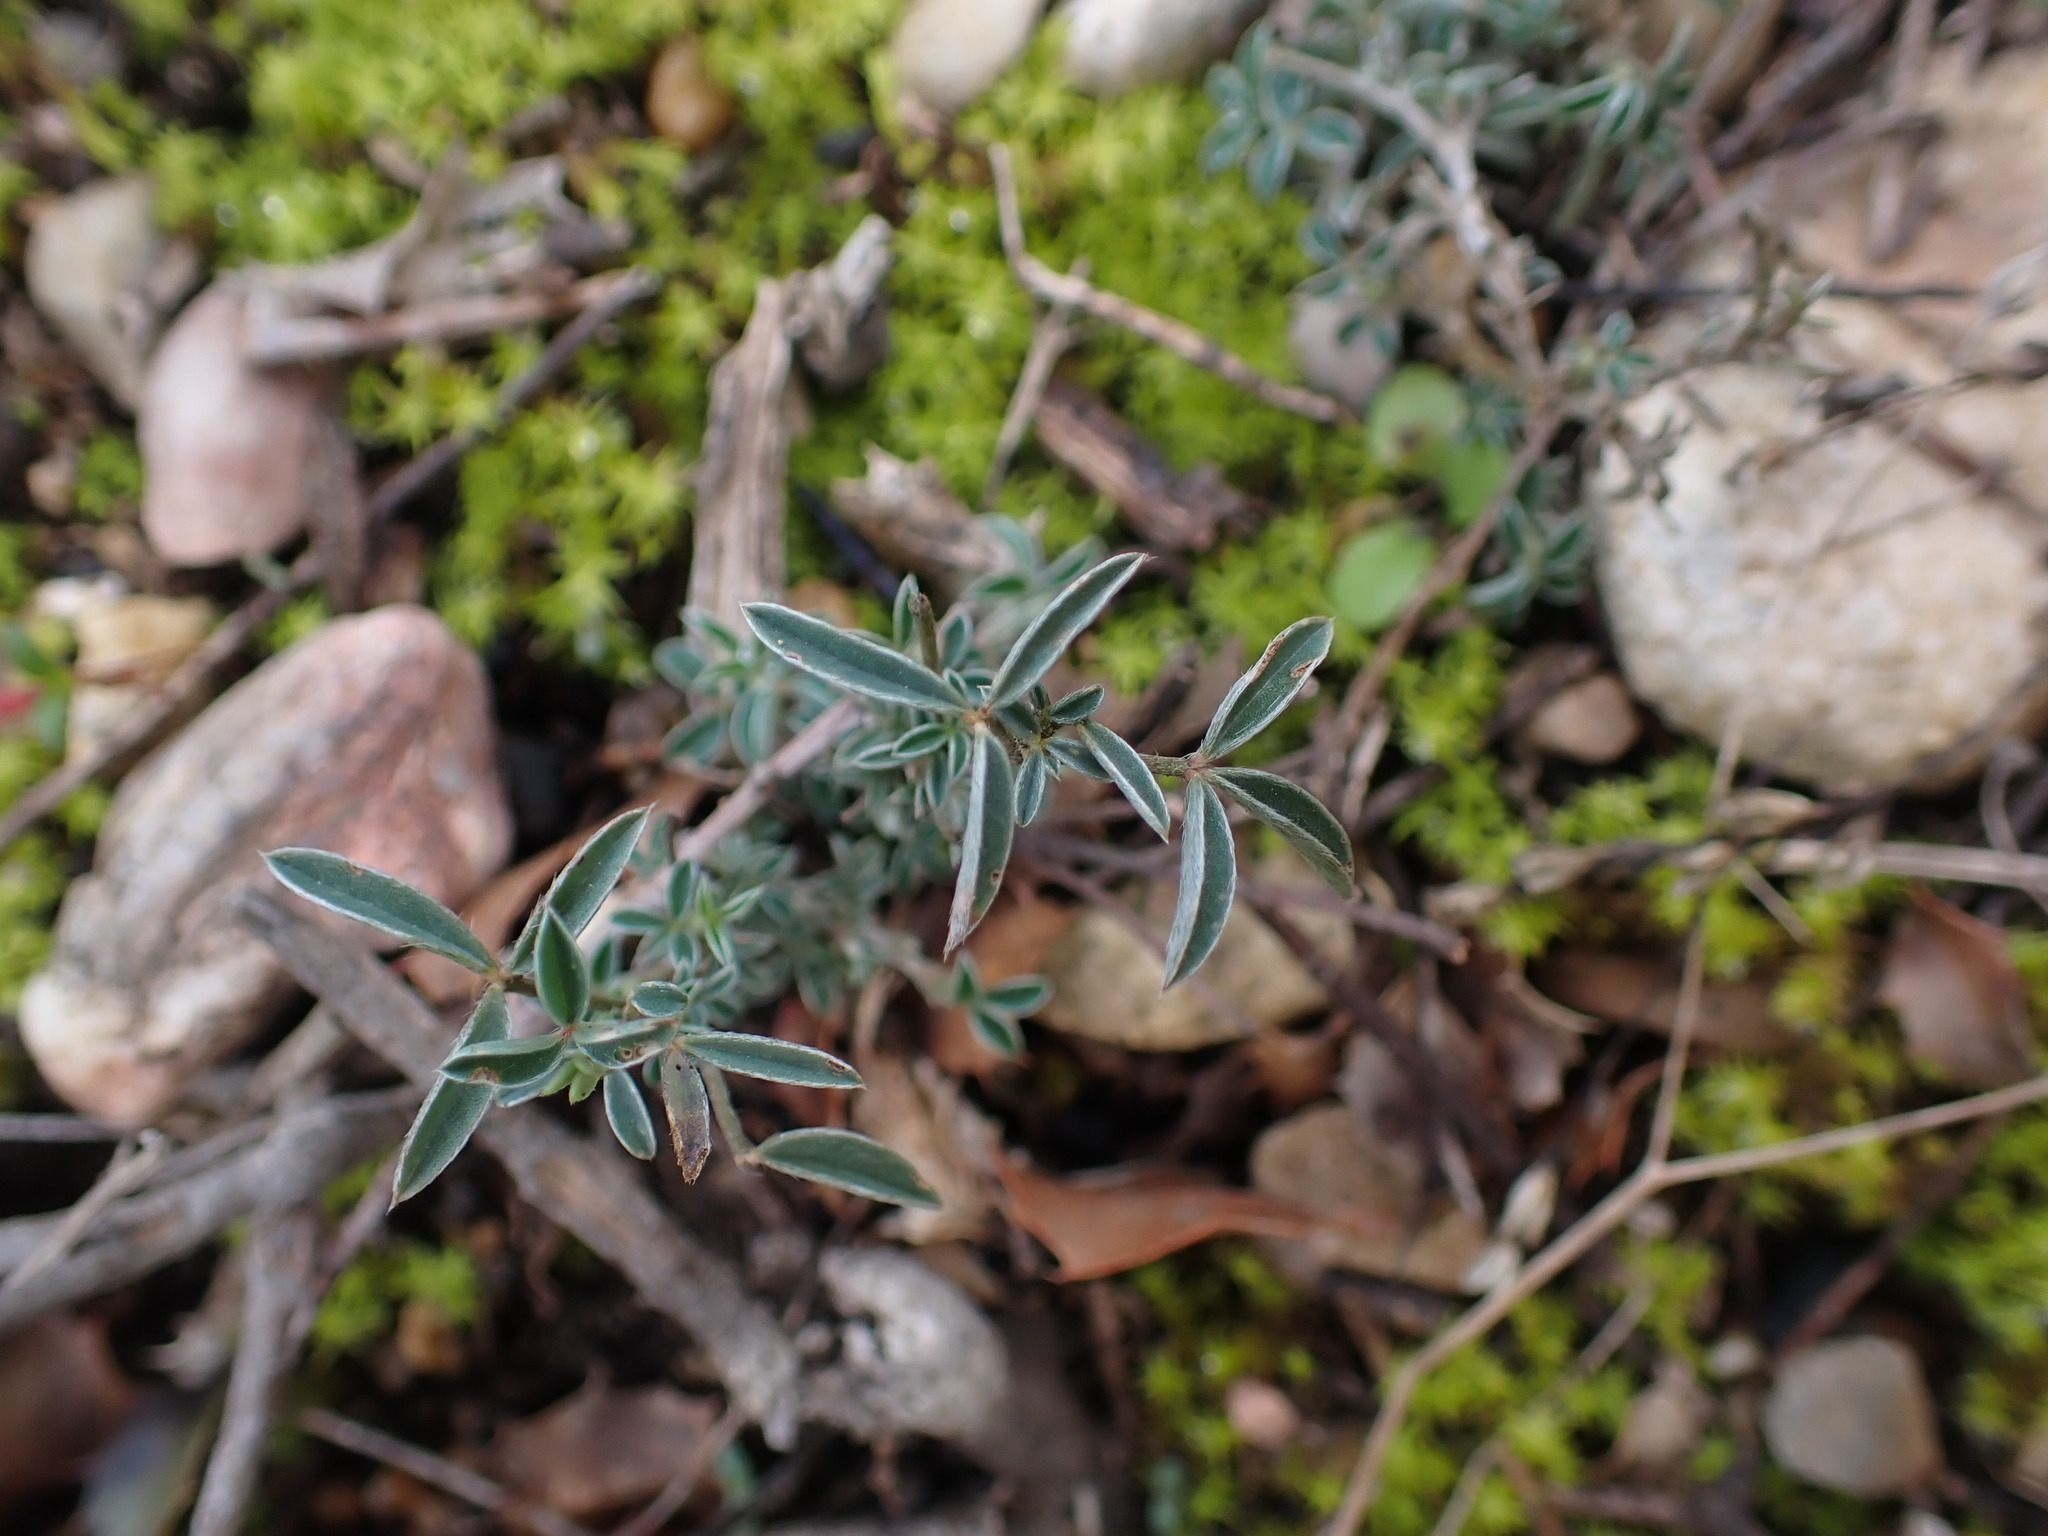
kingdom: Plantae
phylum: Tracheophyta
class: Magnoliopsida
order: Fabales
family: Fabaceae
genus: Argyrolobium
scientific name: Argyrolobium zanonii
